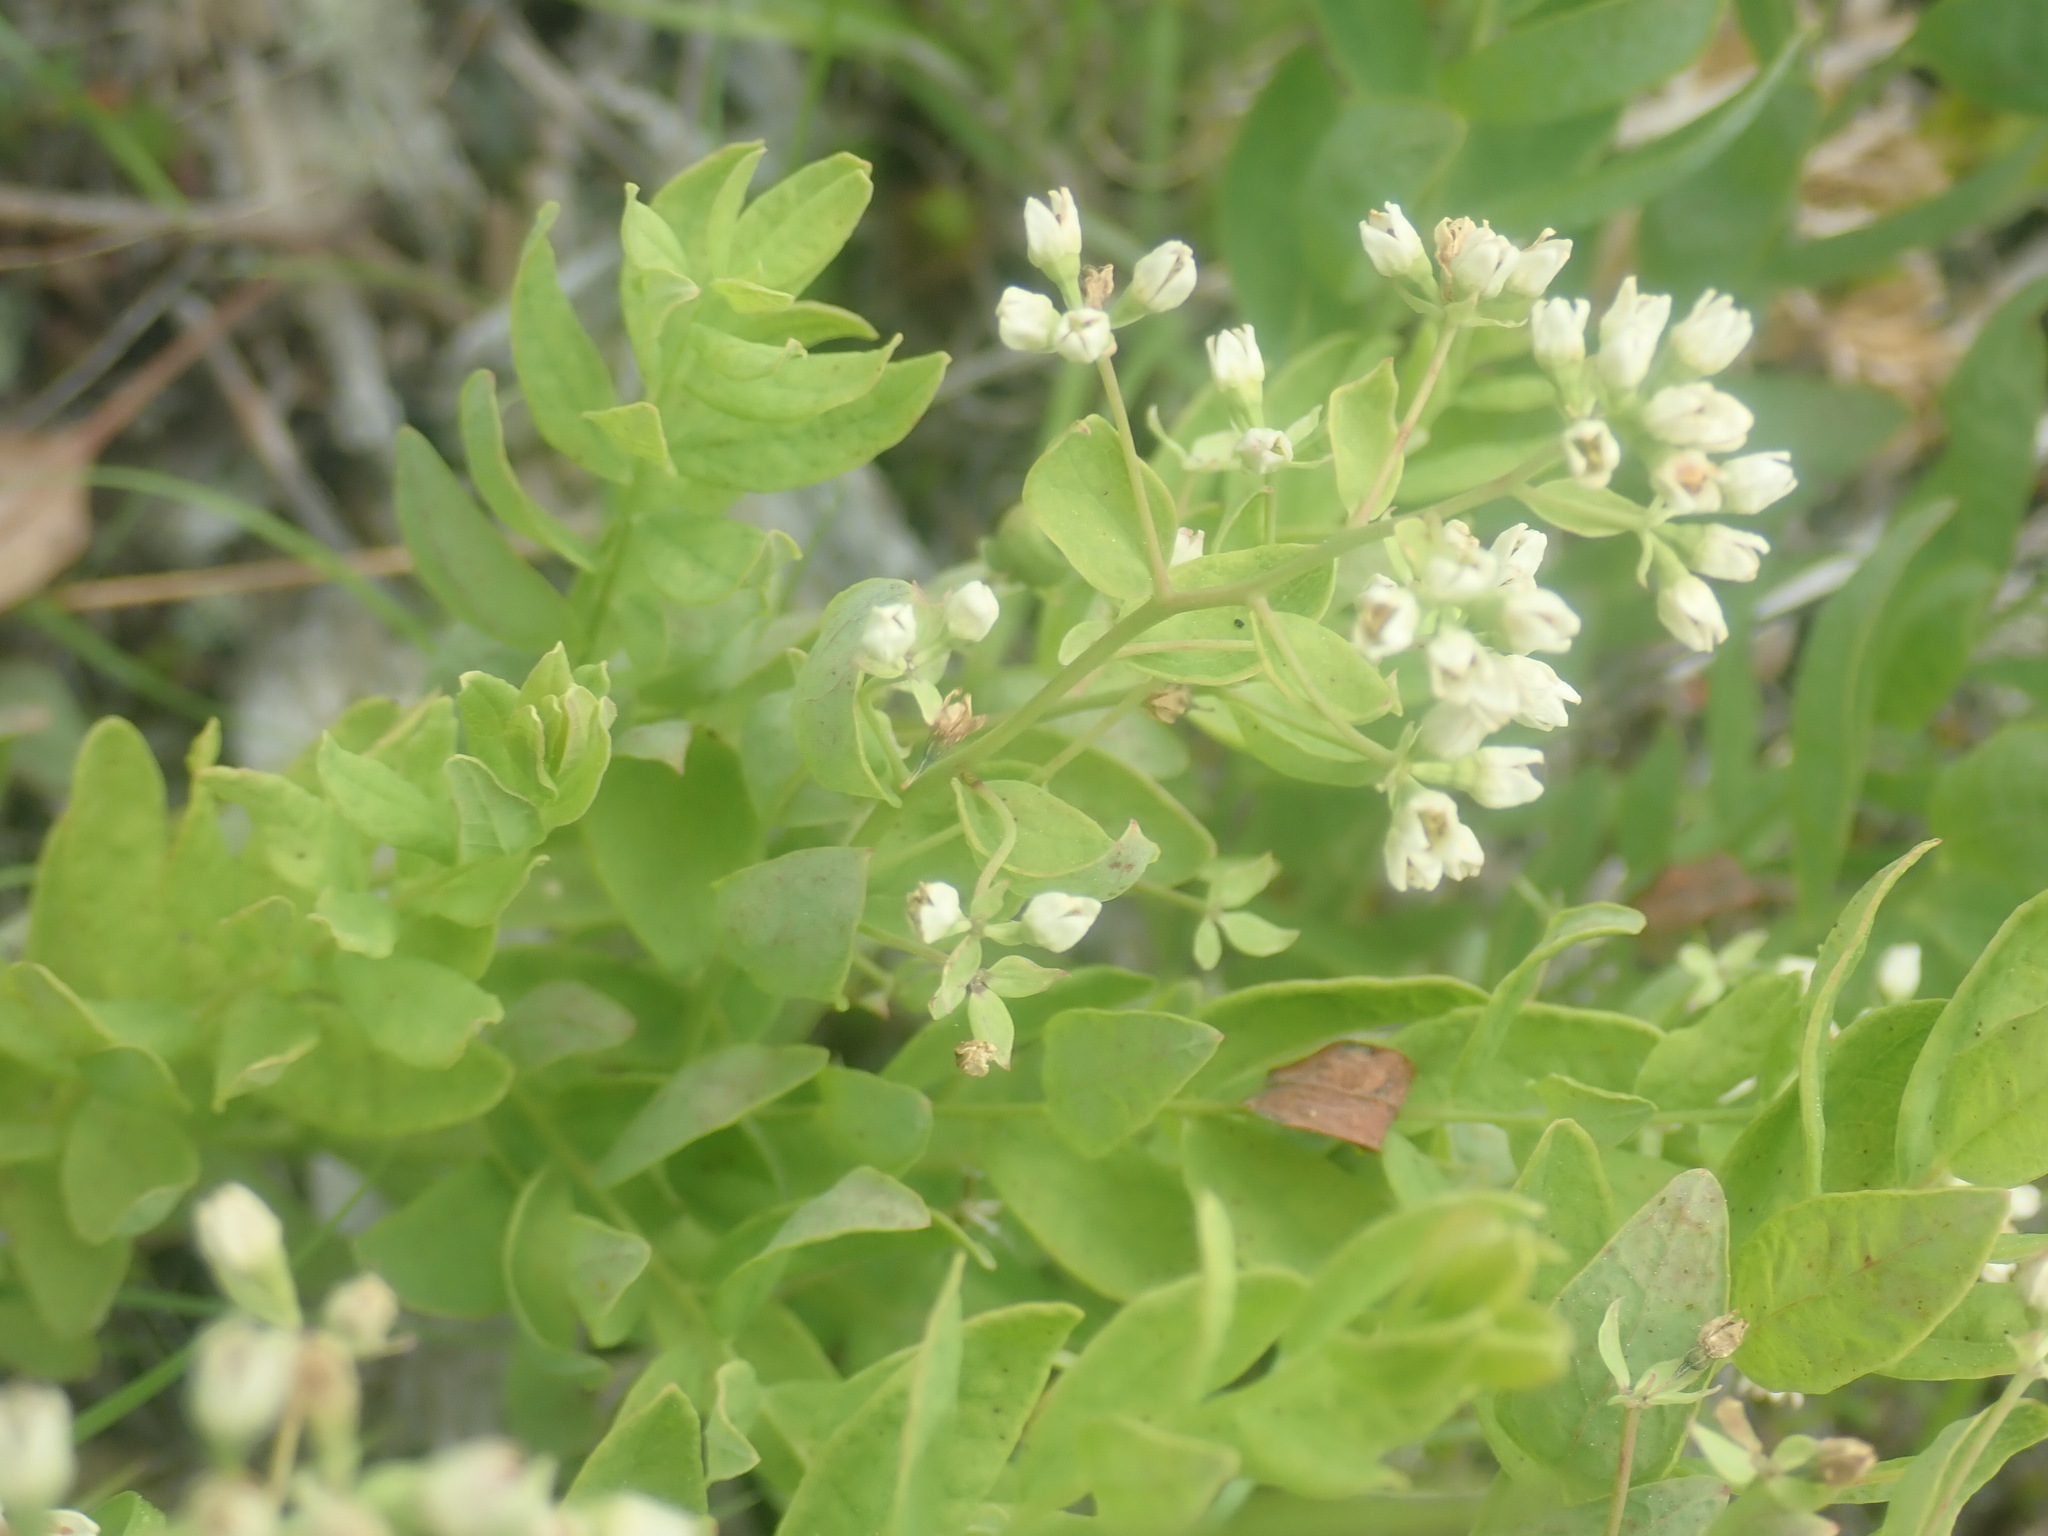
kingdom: Plantae
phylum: Tracheophyta
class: Magnoliopsida
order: Santalales
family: Comandraceae
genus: Comandra
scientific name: Comandra umbellata
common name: Bastard toadflax
